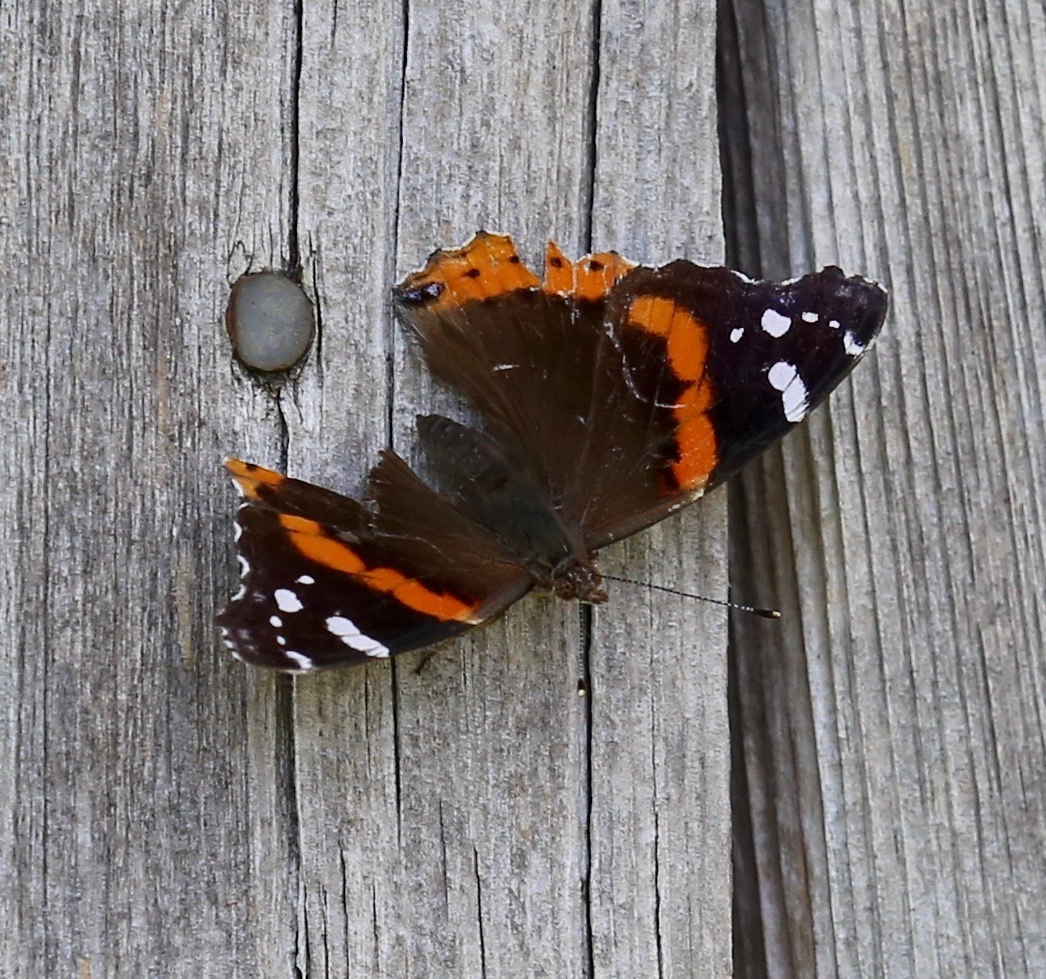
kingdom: Animalia
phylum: Arthropoda
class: Insecta
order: Lepidoptera
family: Nymphalidae
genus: Vanessa
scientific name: Vanessa atalanta
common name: Red admiral
